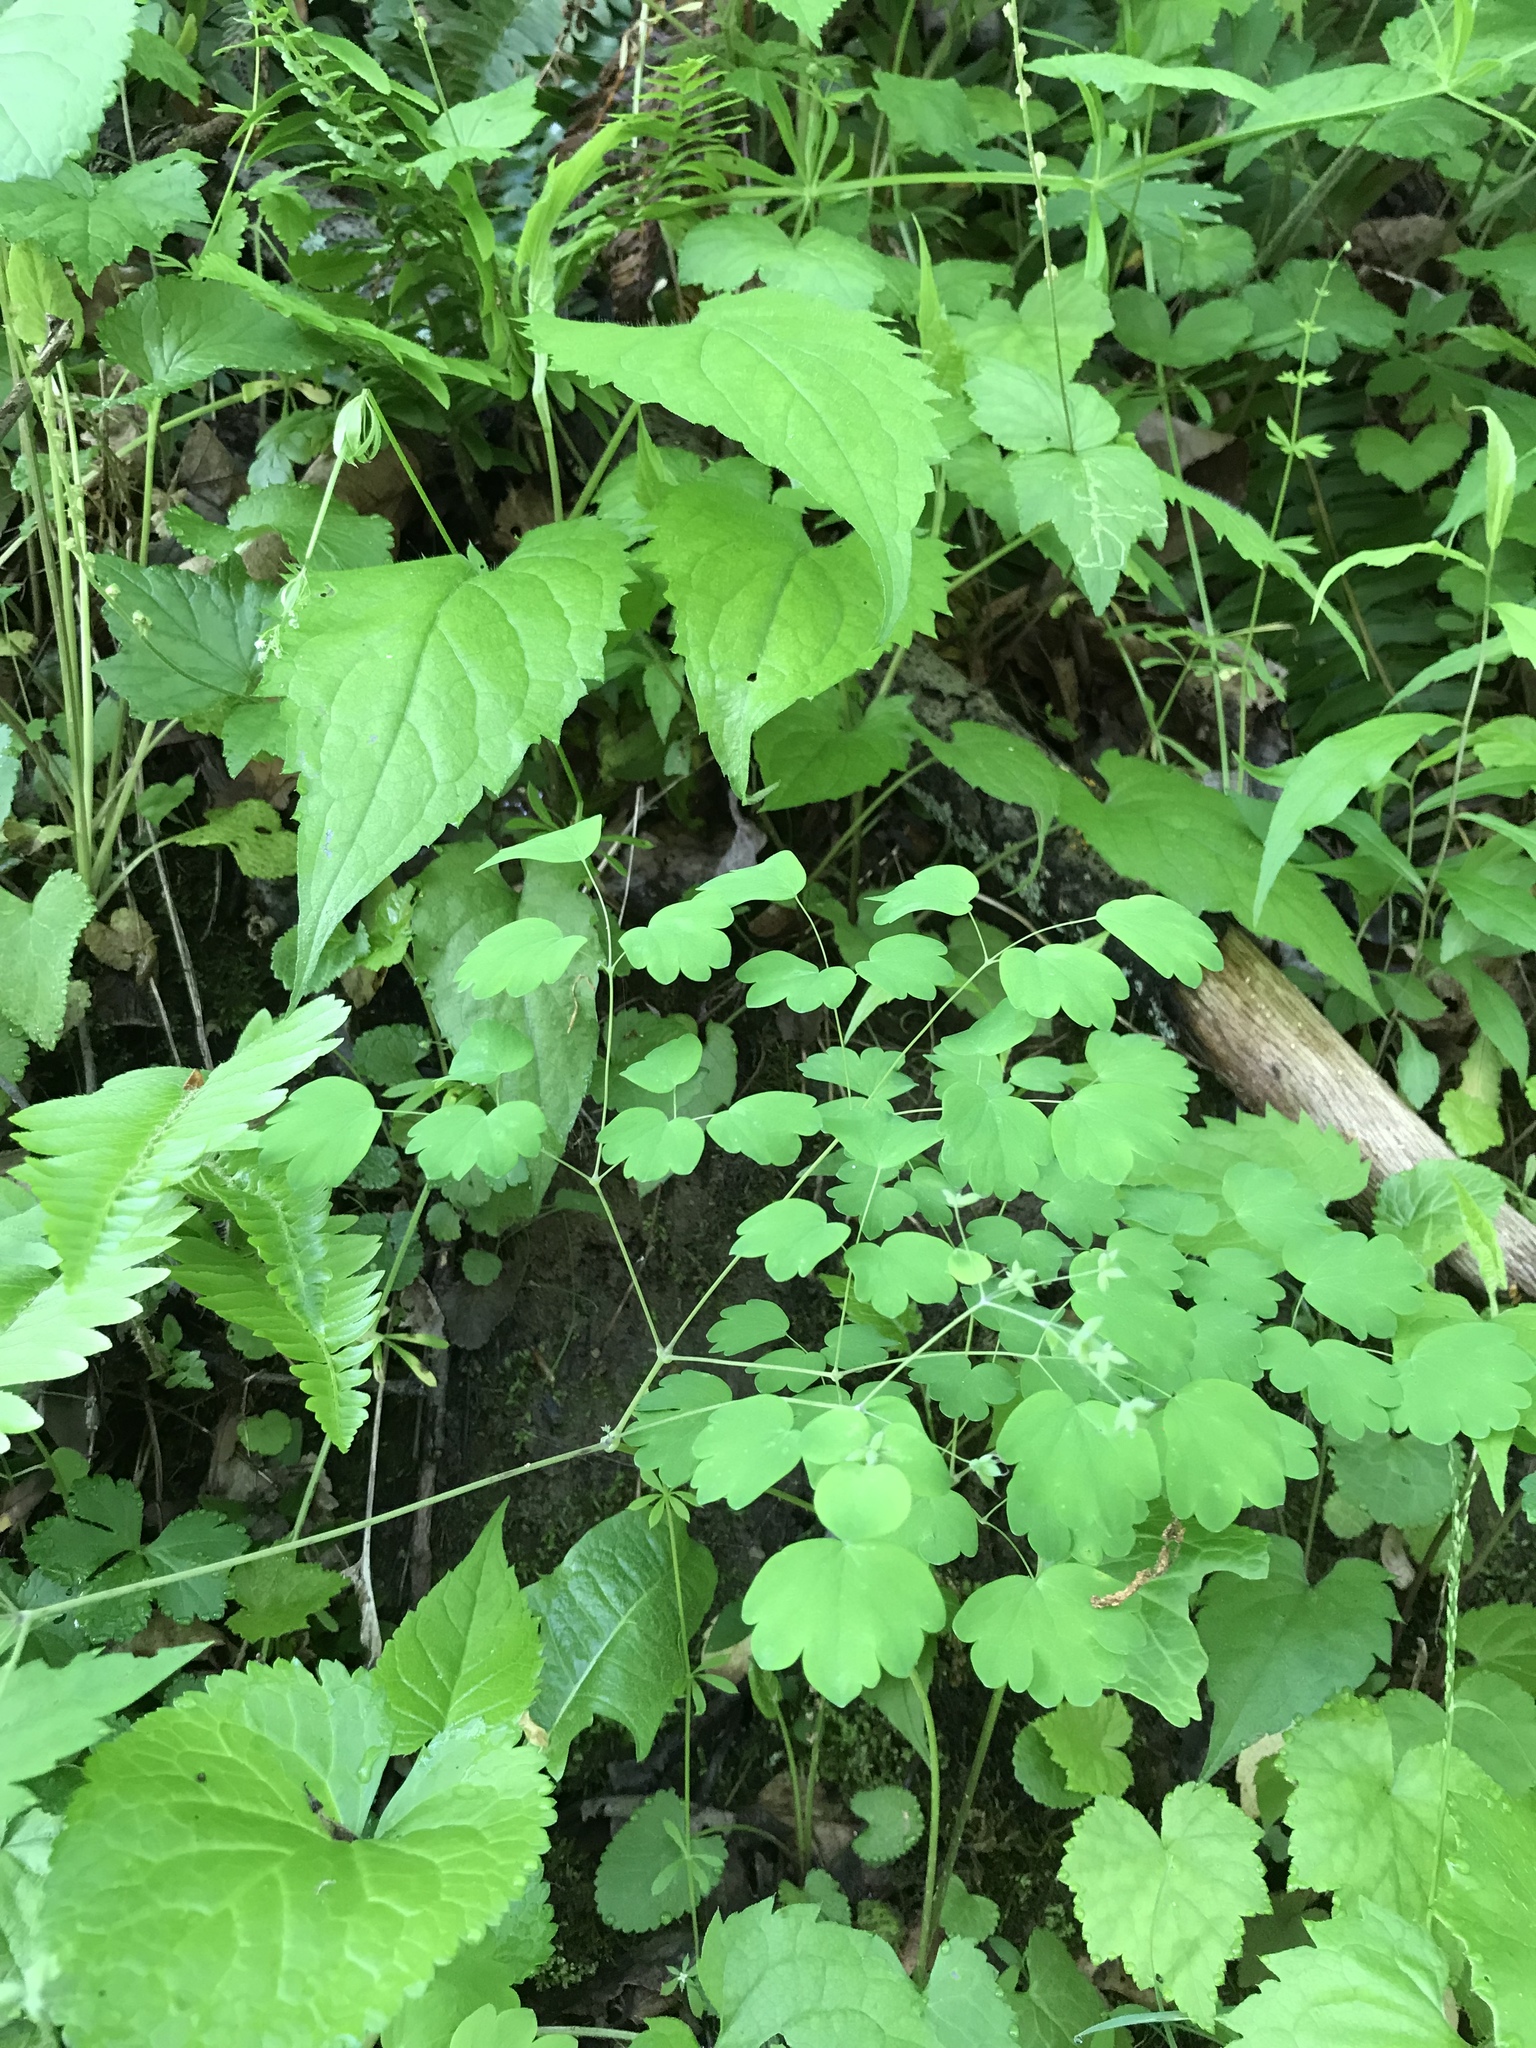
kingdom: Plantae
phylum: Tracheophyta
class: Magnoliopsida
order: Ranunculales
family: Ranunculaceae
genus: Thalictrum
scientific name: Thalictrum dioicum
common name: Early meadow-rue
